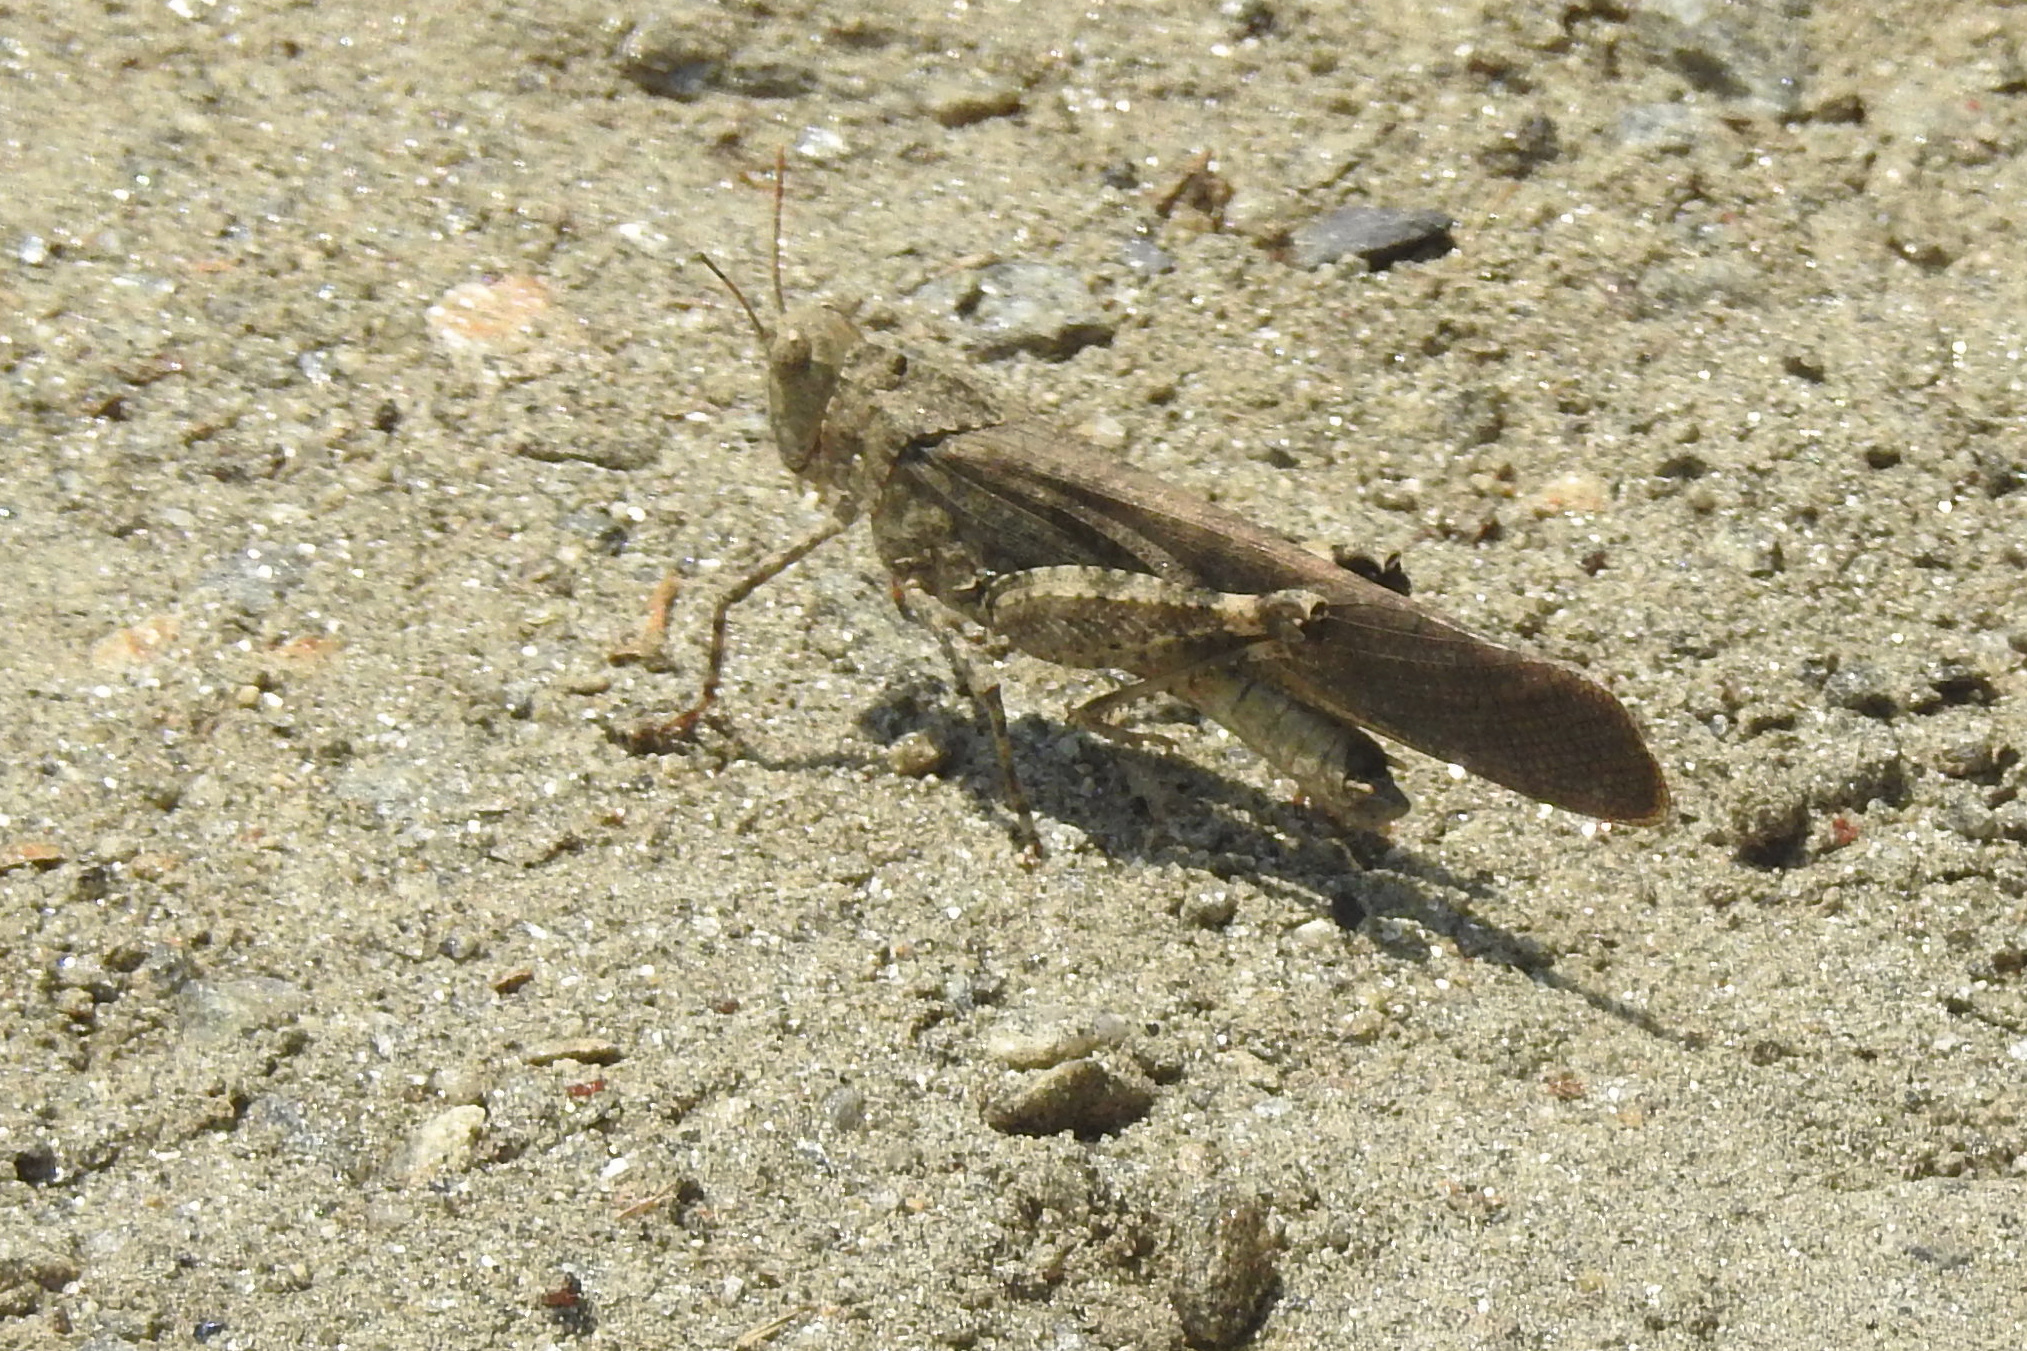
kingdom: Animalia
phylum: Arthropoda
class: Insecta
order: Orthoptera
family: Acrididae
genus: Dissosteira
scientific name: Dissosteira carolina
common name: Carolina grasshopper
